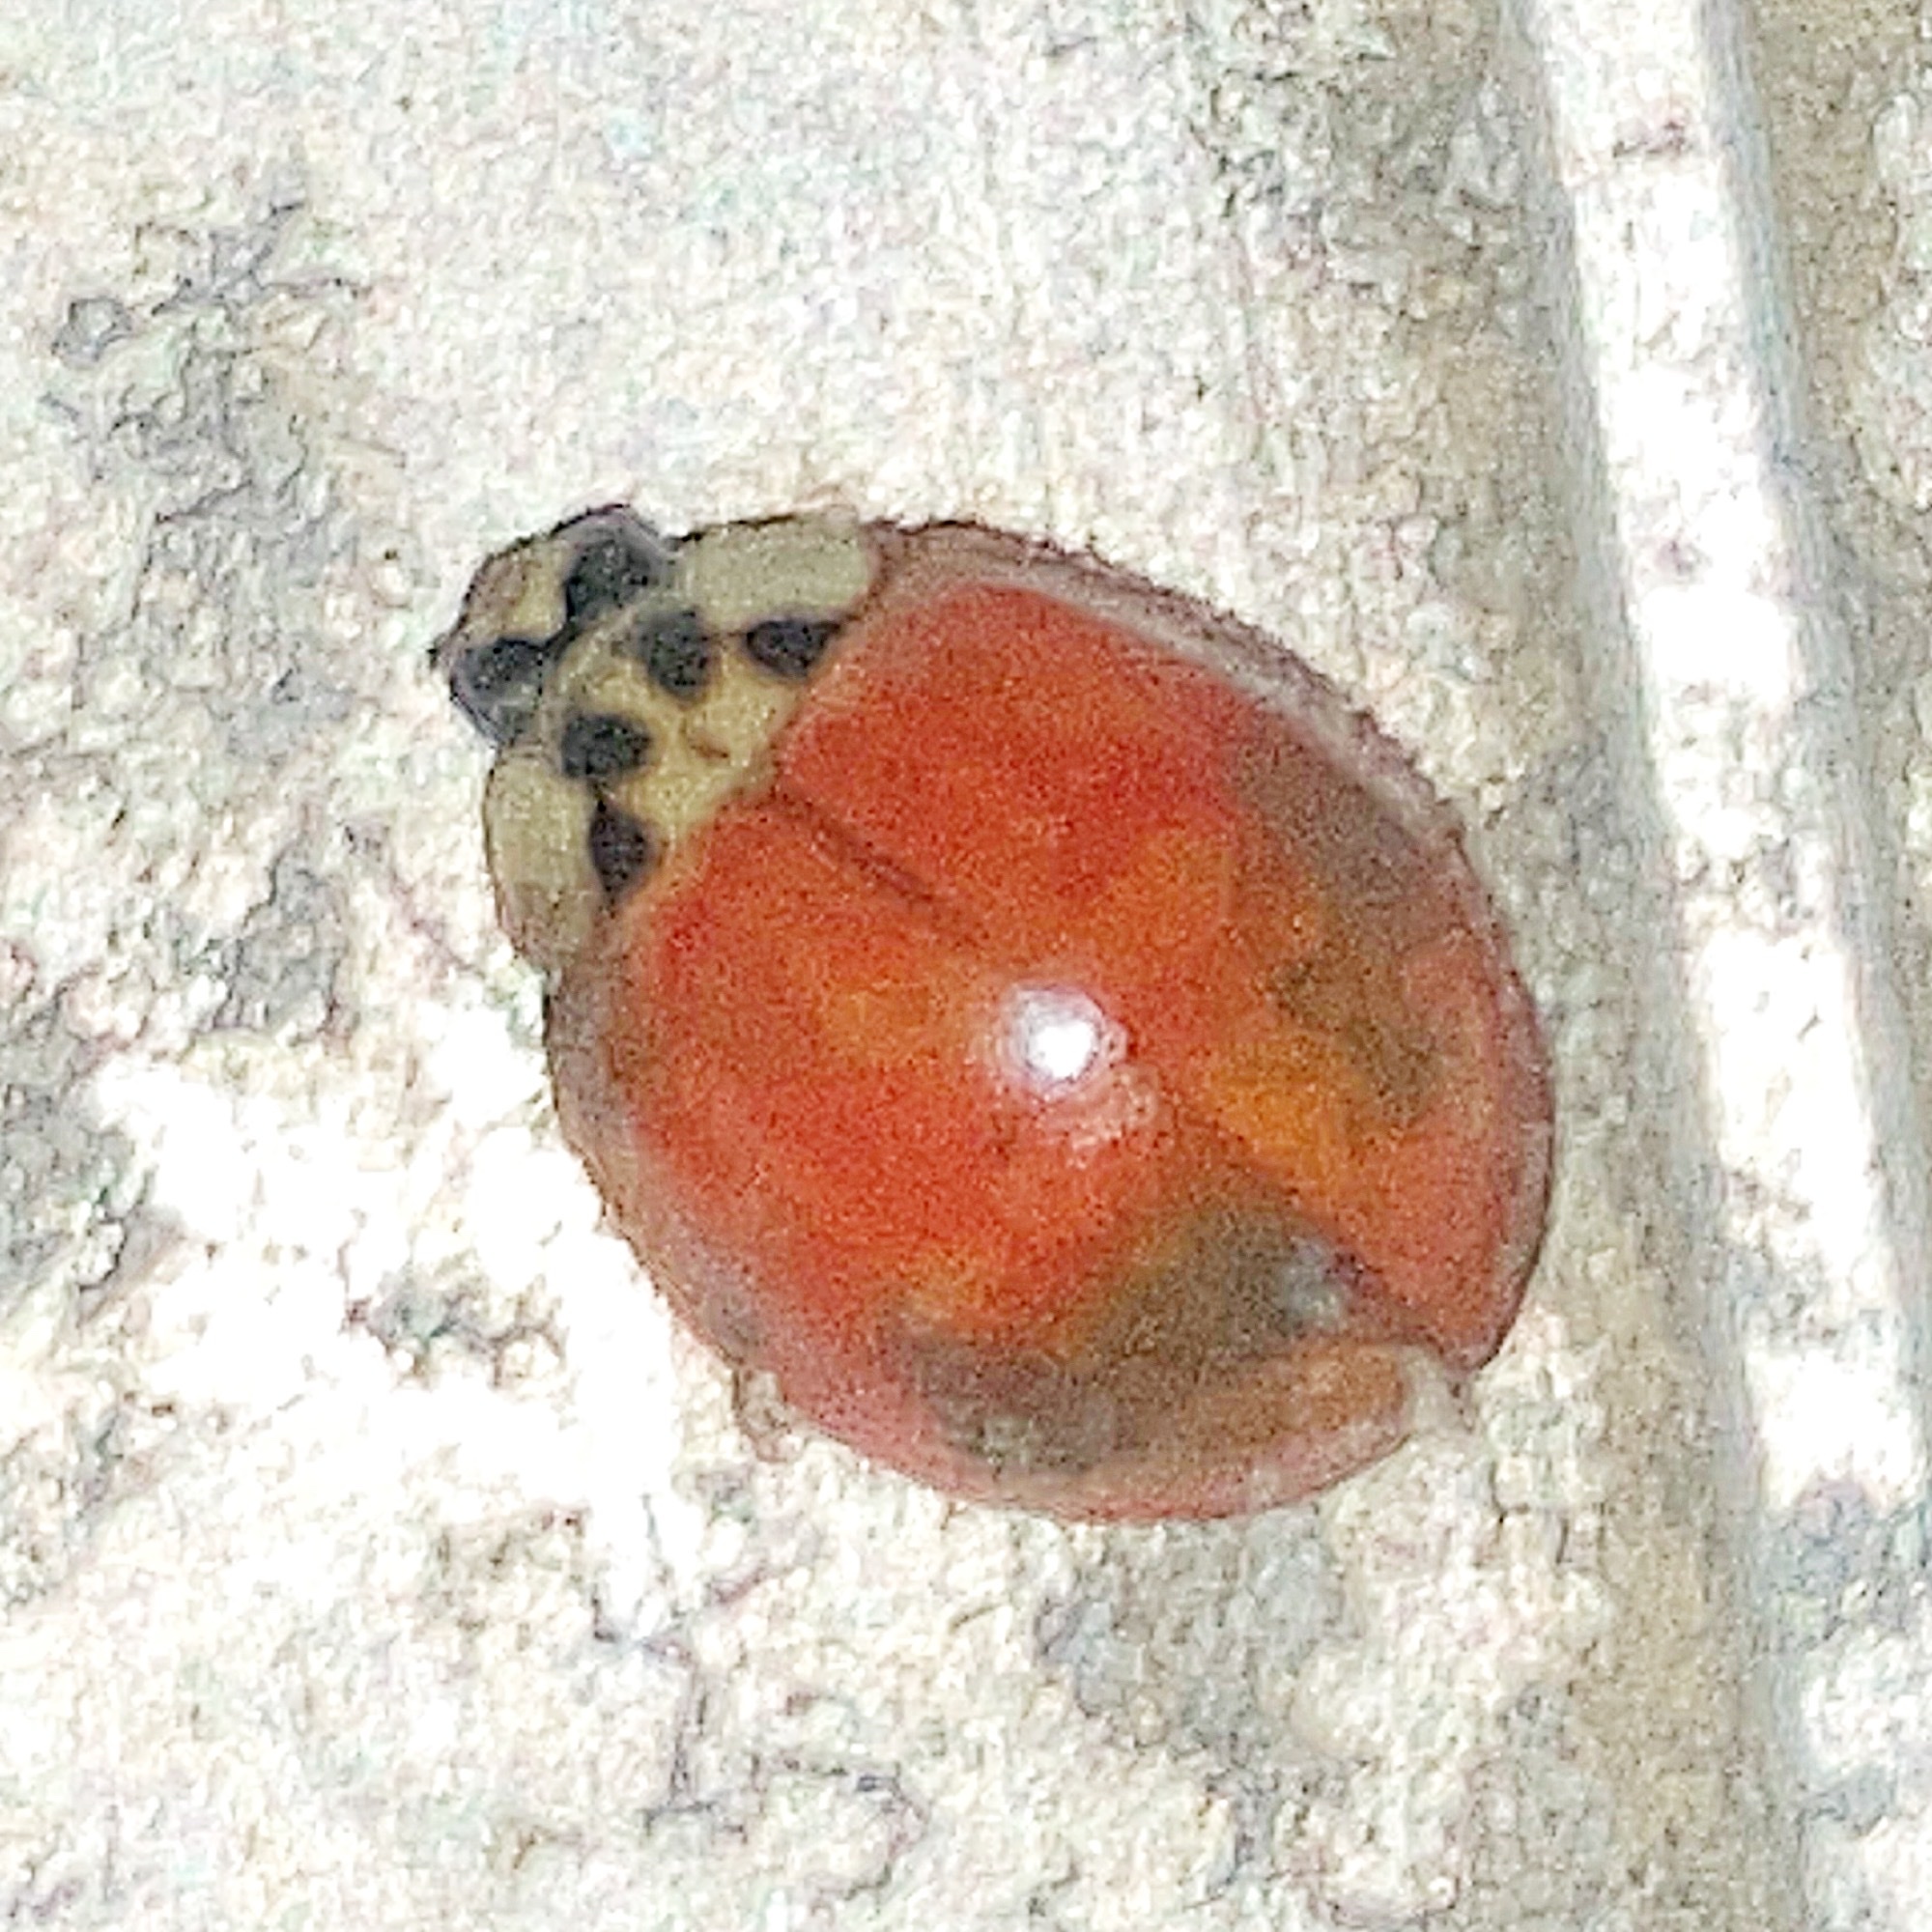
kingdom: Animalia
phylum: Arthropoda
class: Insecta
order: Coleoptera
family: Coccinellidae
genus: Harmonia
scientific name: Harmonia axyridis
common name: Harlequin ladybird
